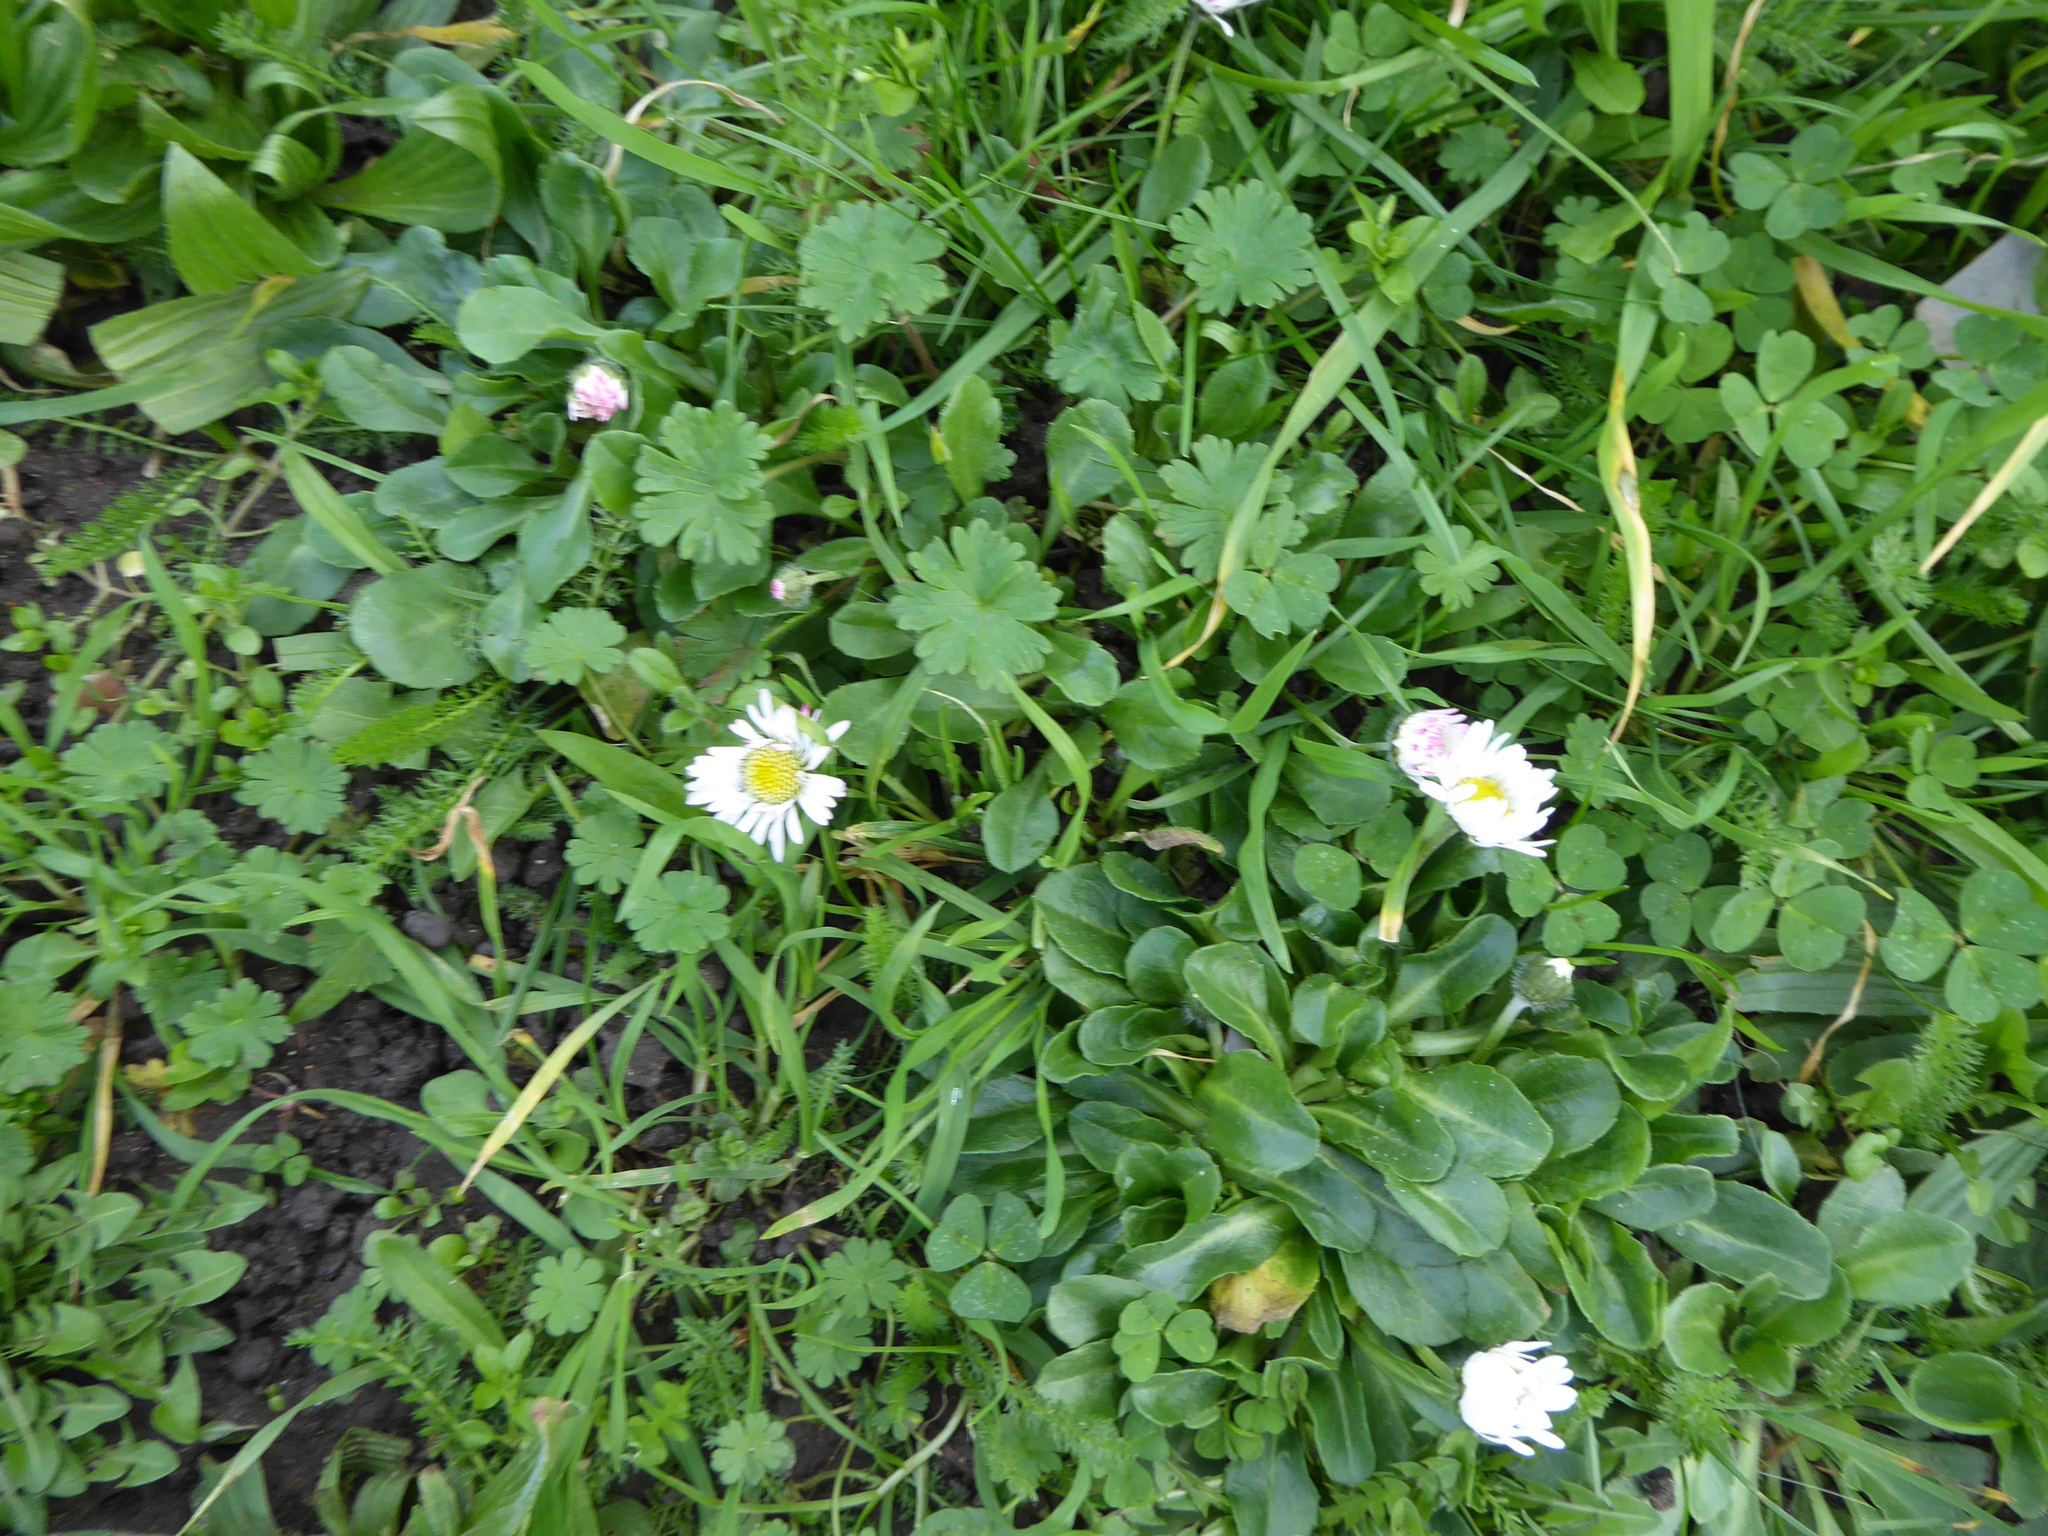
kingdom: Plantae
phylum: Tracheophyta
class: Magnoliopsida
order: Asterales
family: Asteraceae
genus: Bellis
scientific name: Bellis perennis
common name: Lawndaisy
